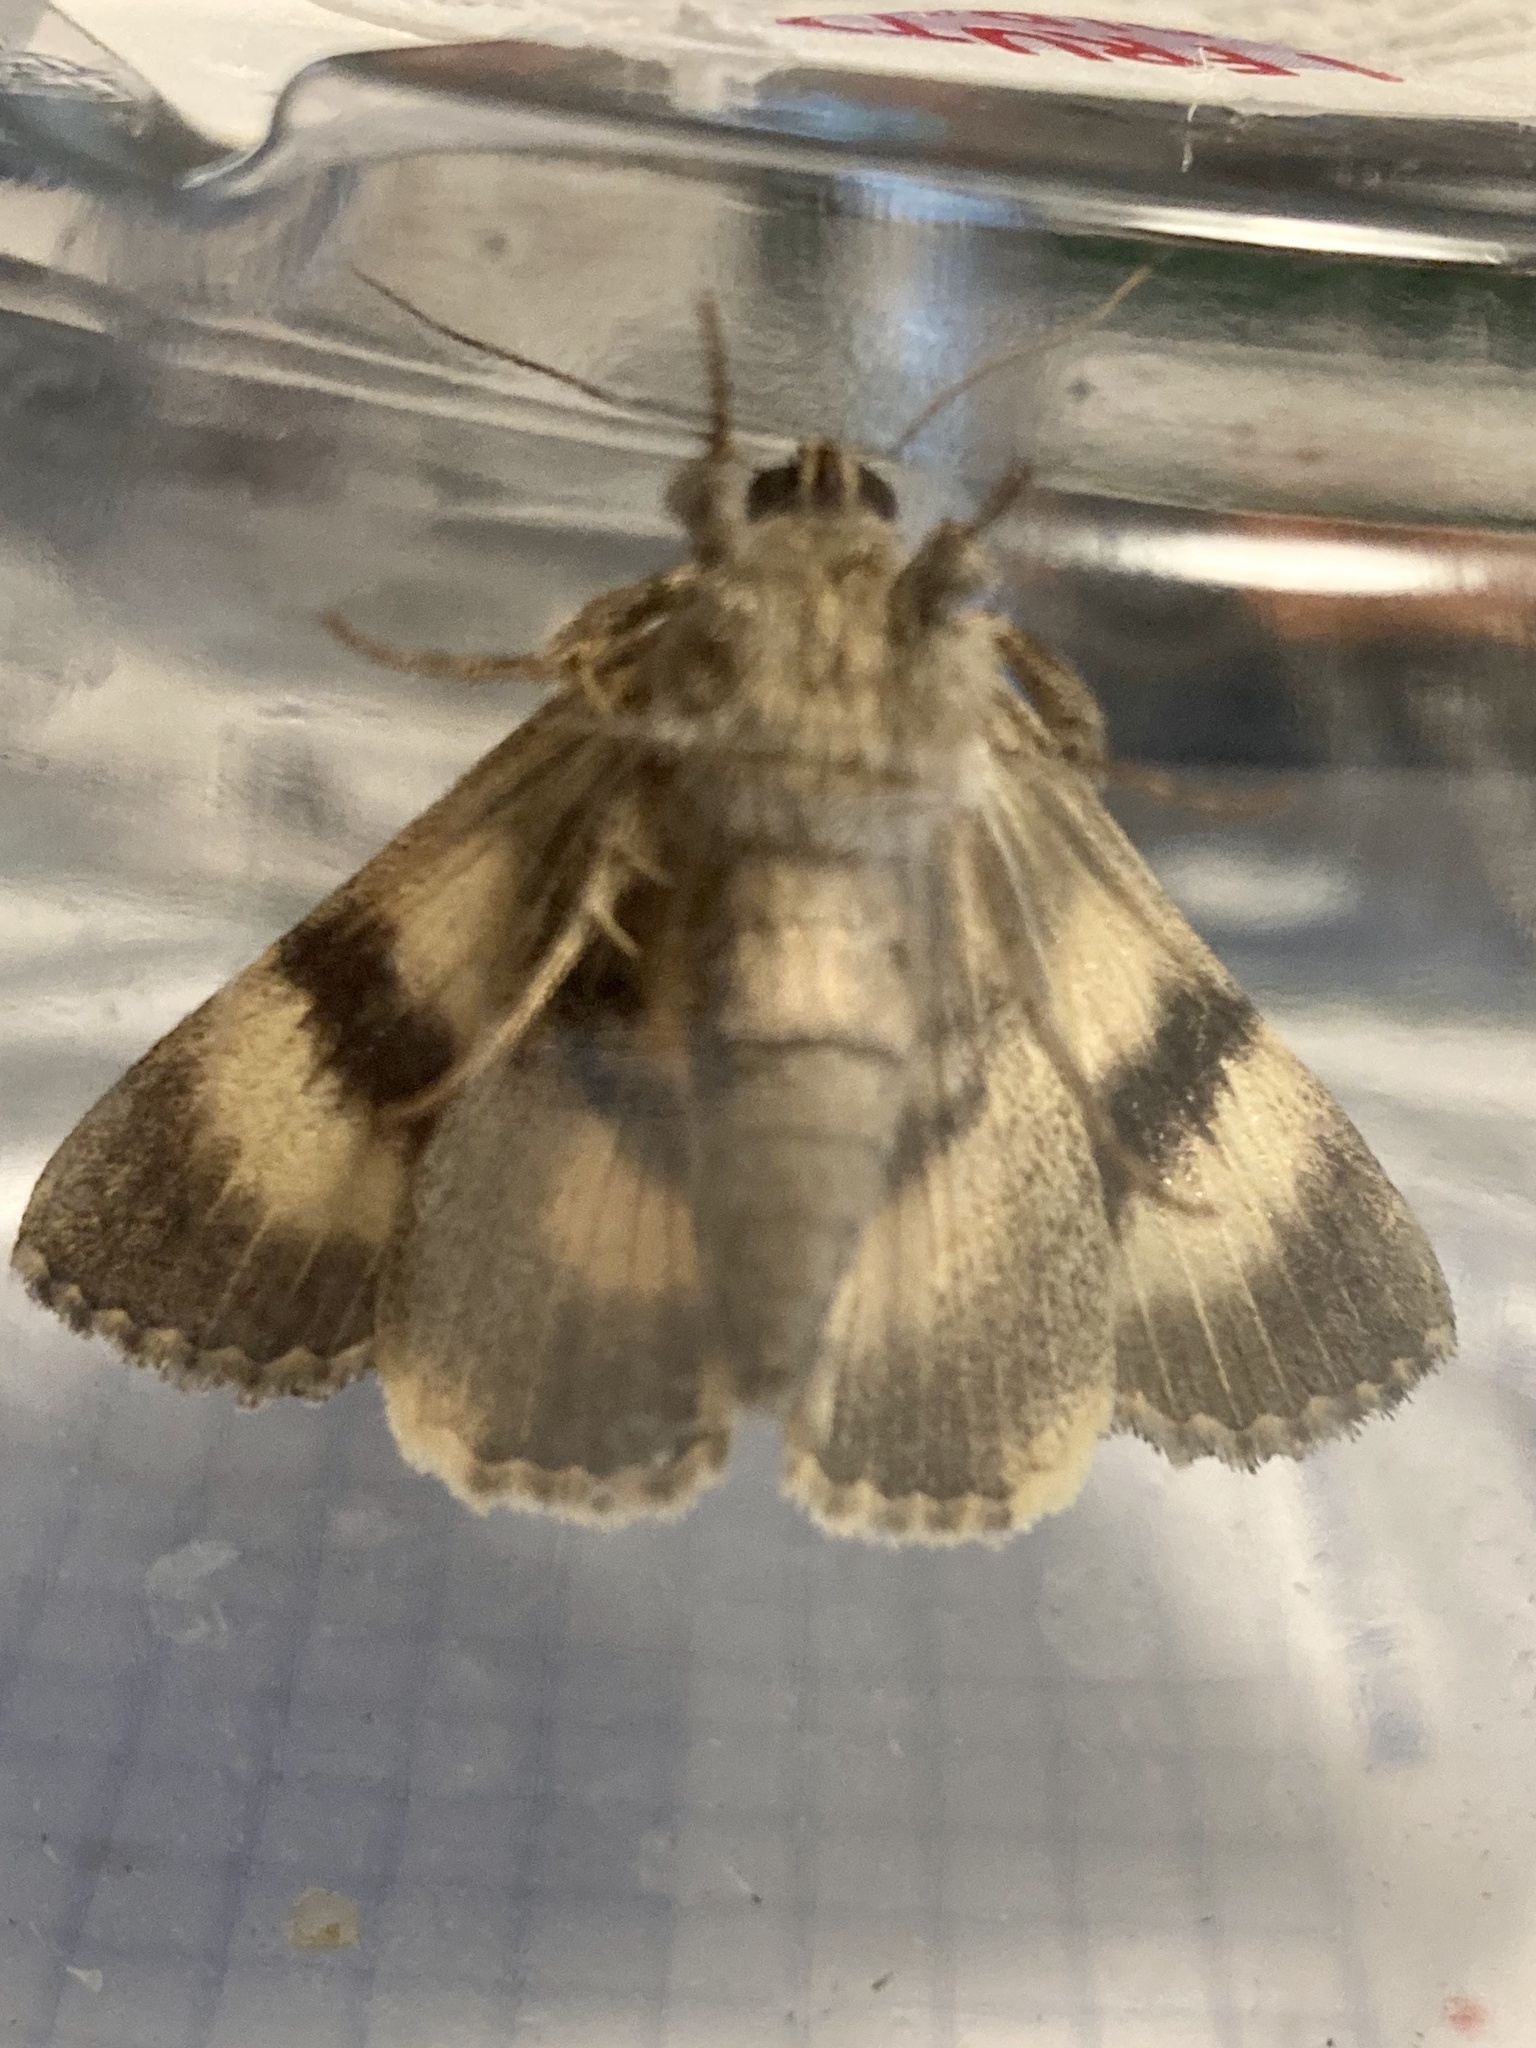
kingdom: Animalia
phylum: Arthropoda
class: Insecta
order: Lepidoptera
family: Erebidae
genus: Catocala
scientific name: Catocala nymphagoga
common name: Oak yellow underwing
